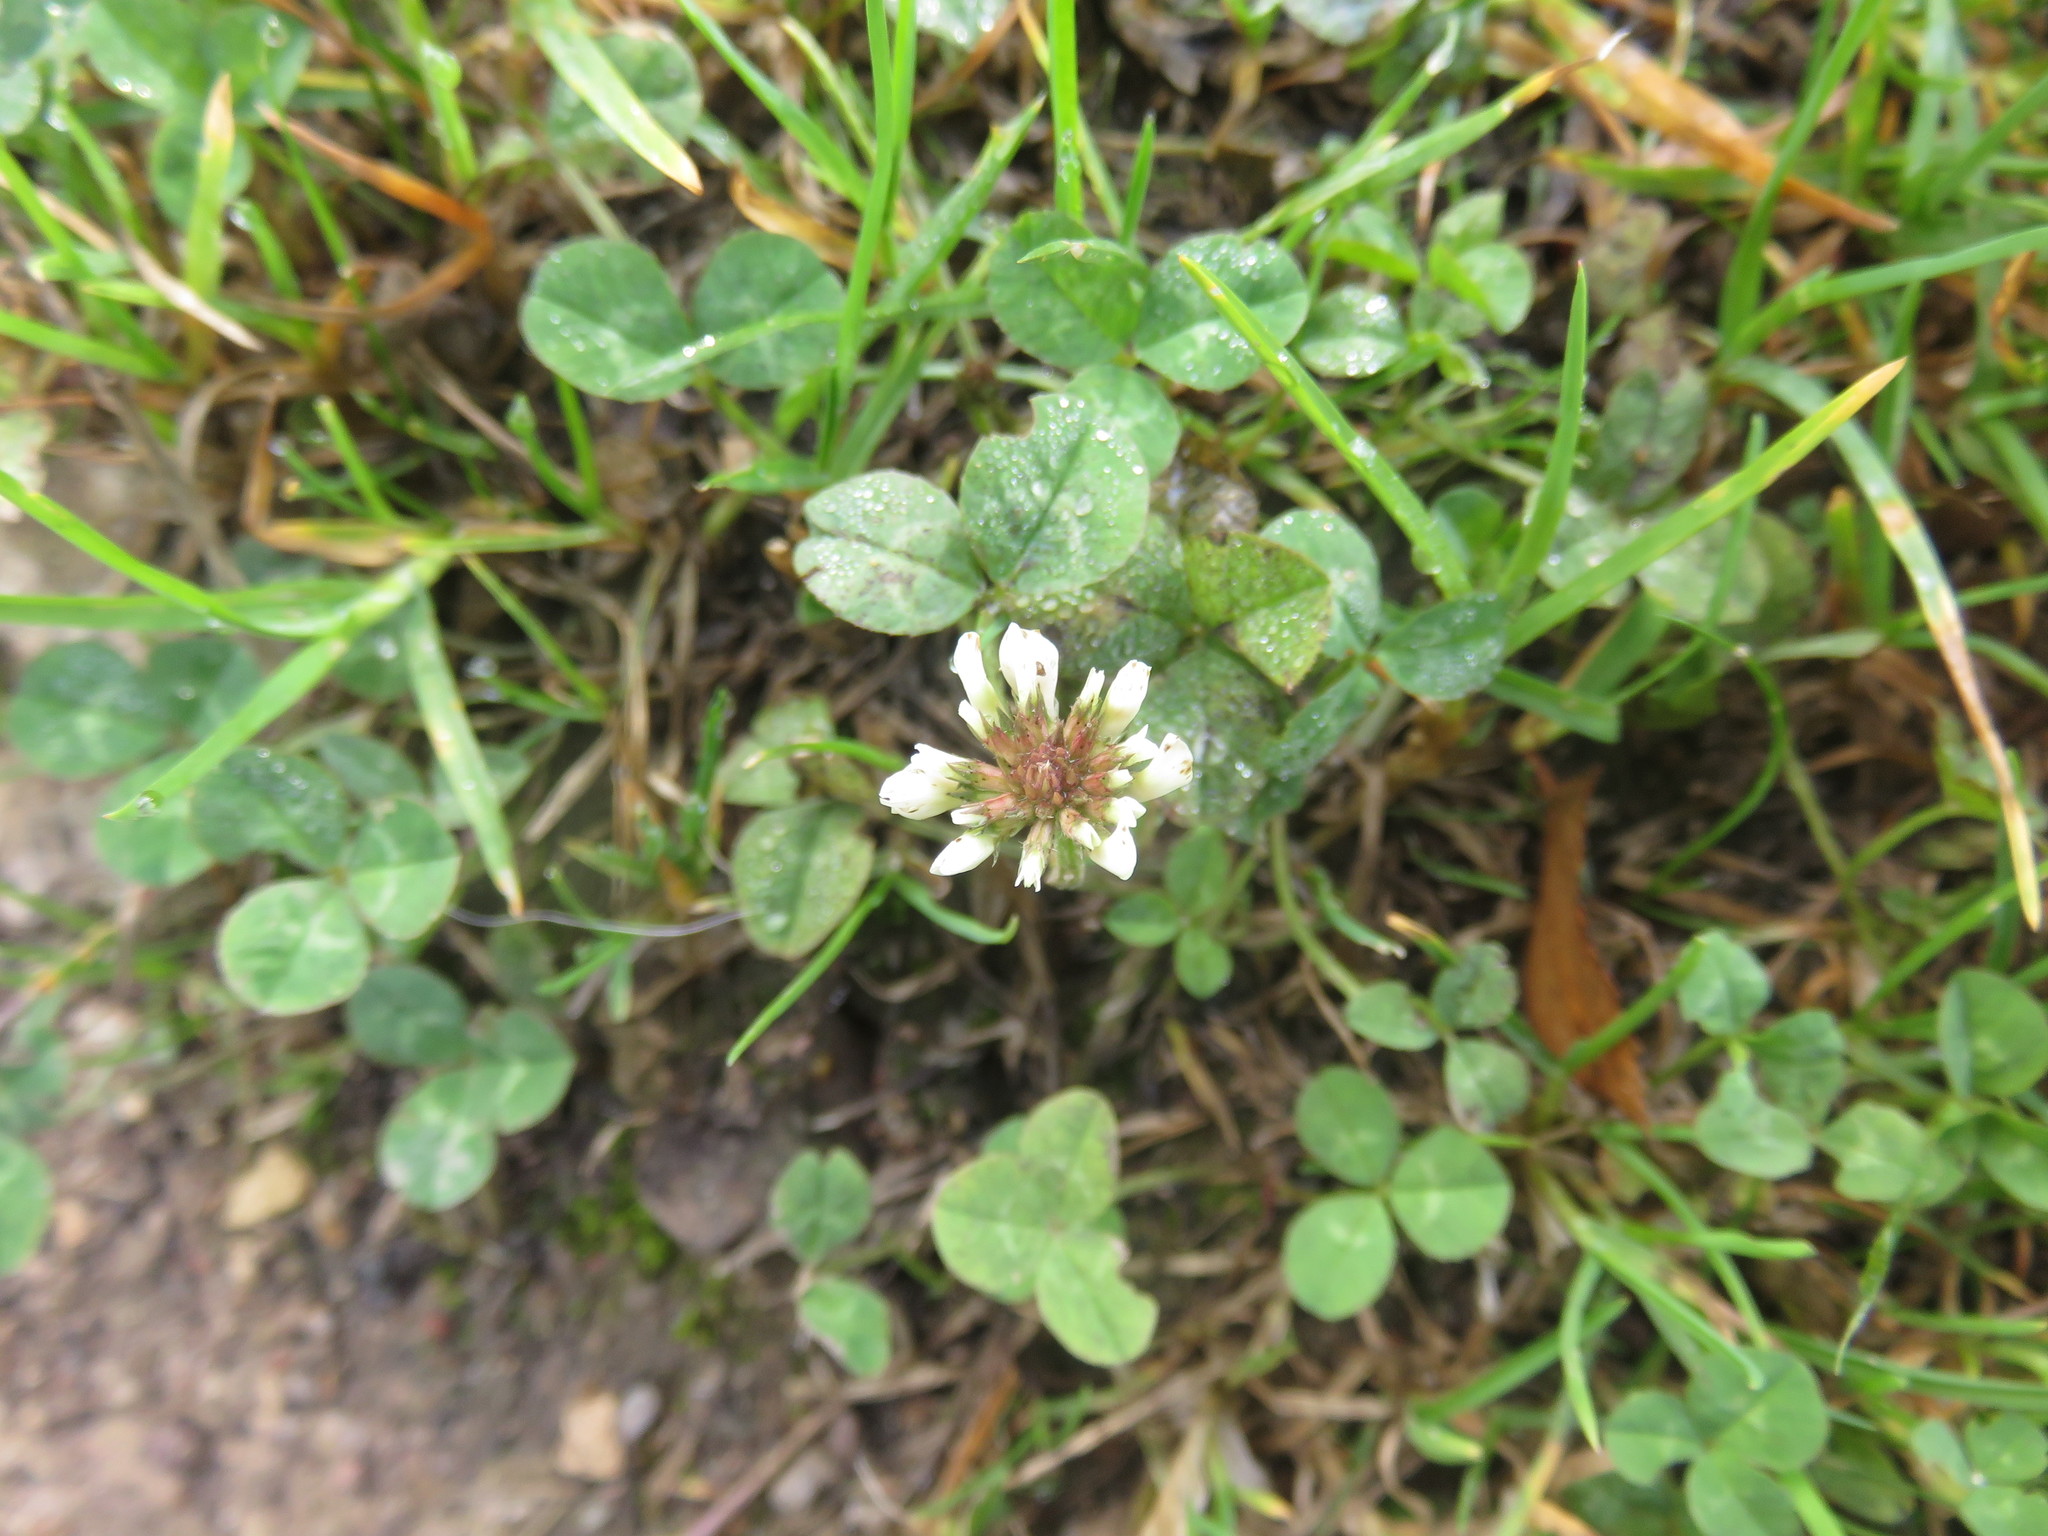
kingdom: Plantae
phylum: Tracheophyta
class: Magnoliopsida
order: Fabales
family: Fabaceae
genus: Trifolium
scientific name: Trifolium repens
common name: White clover
